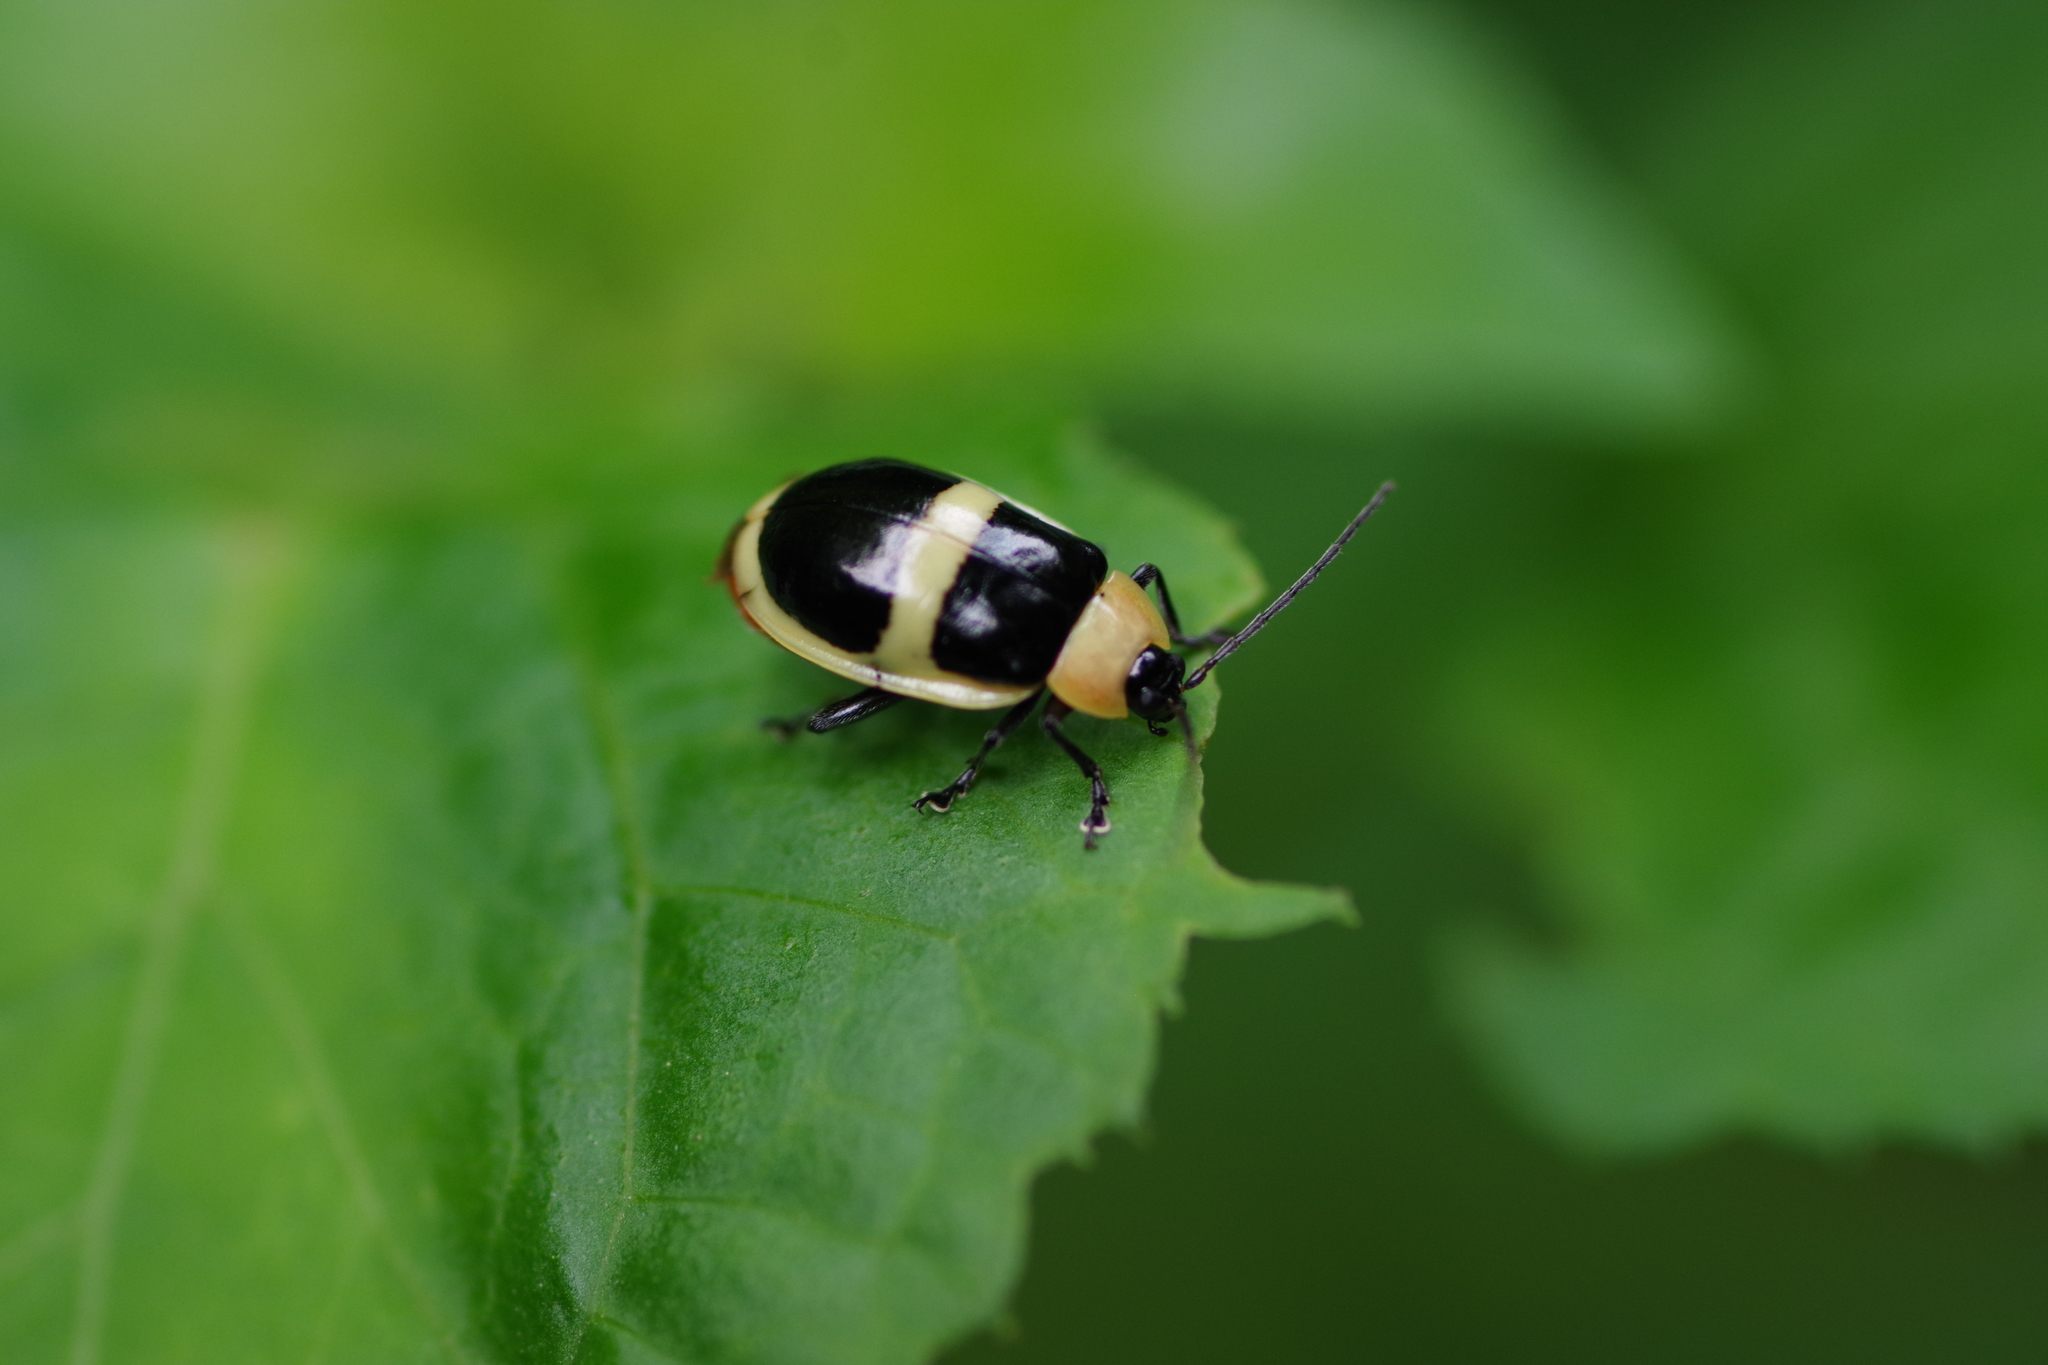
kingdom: Animalia
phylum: Arthropoda
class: Insecta
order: Coleoptera
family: Chrysomelidae
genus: Asphaera
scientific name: Asphaera
